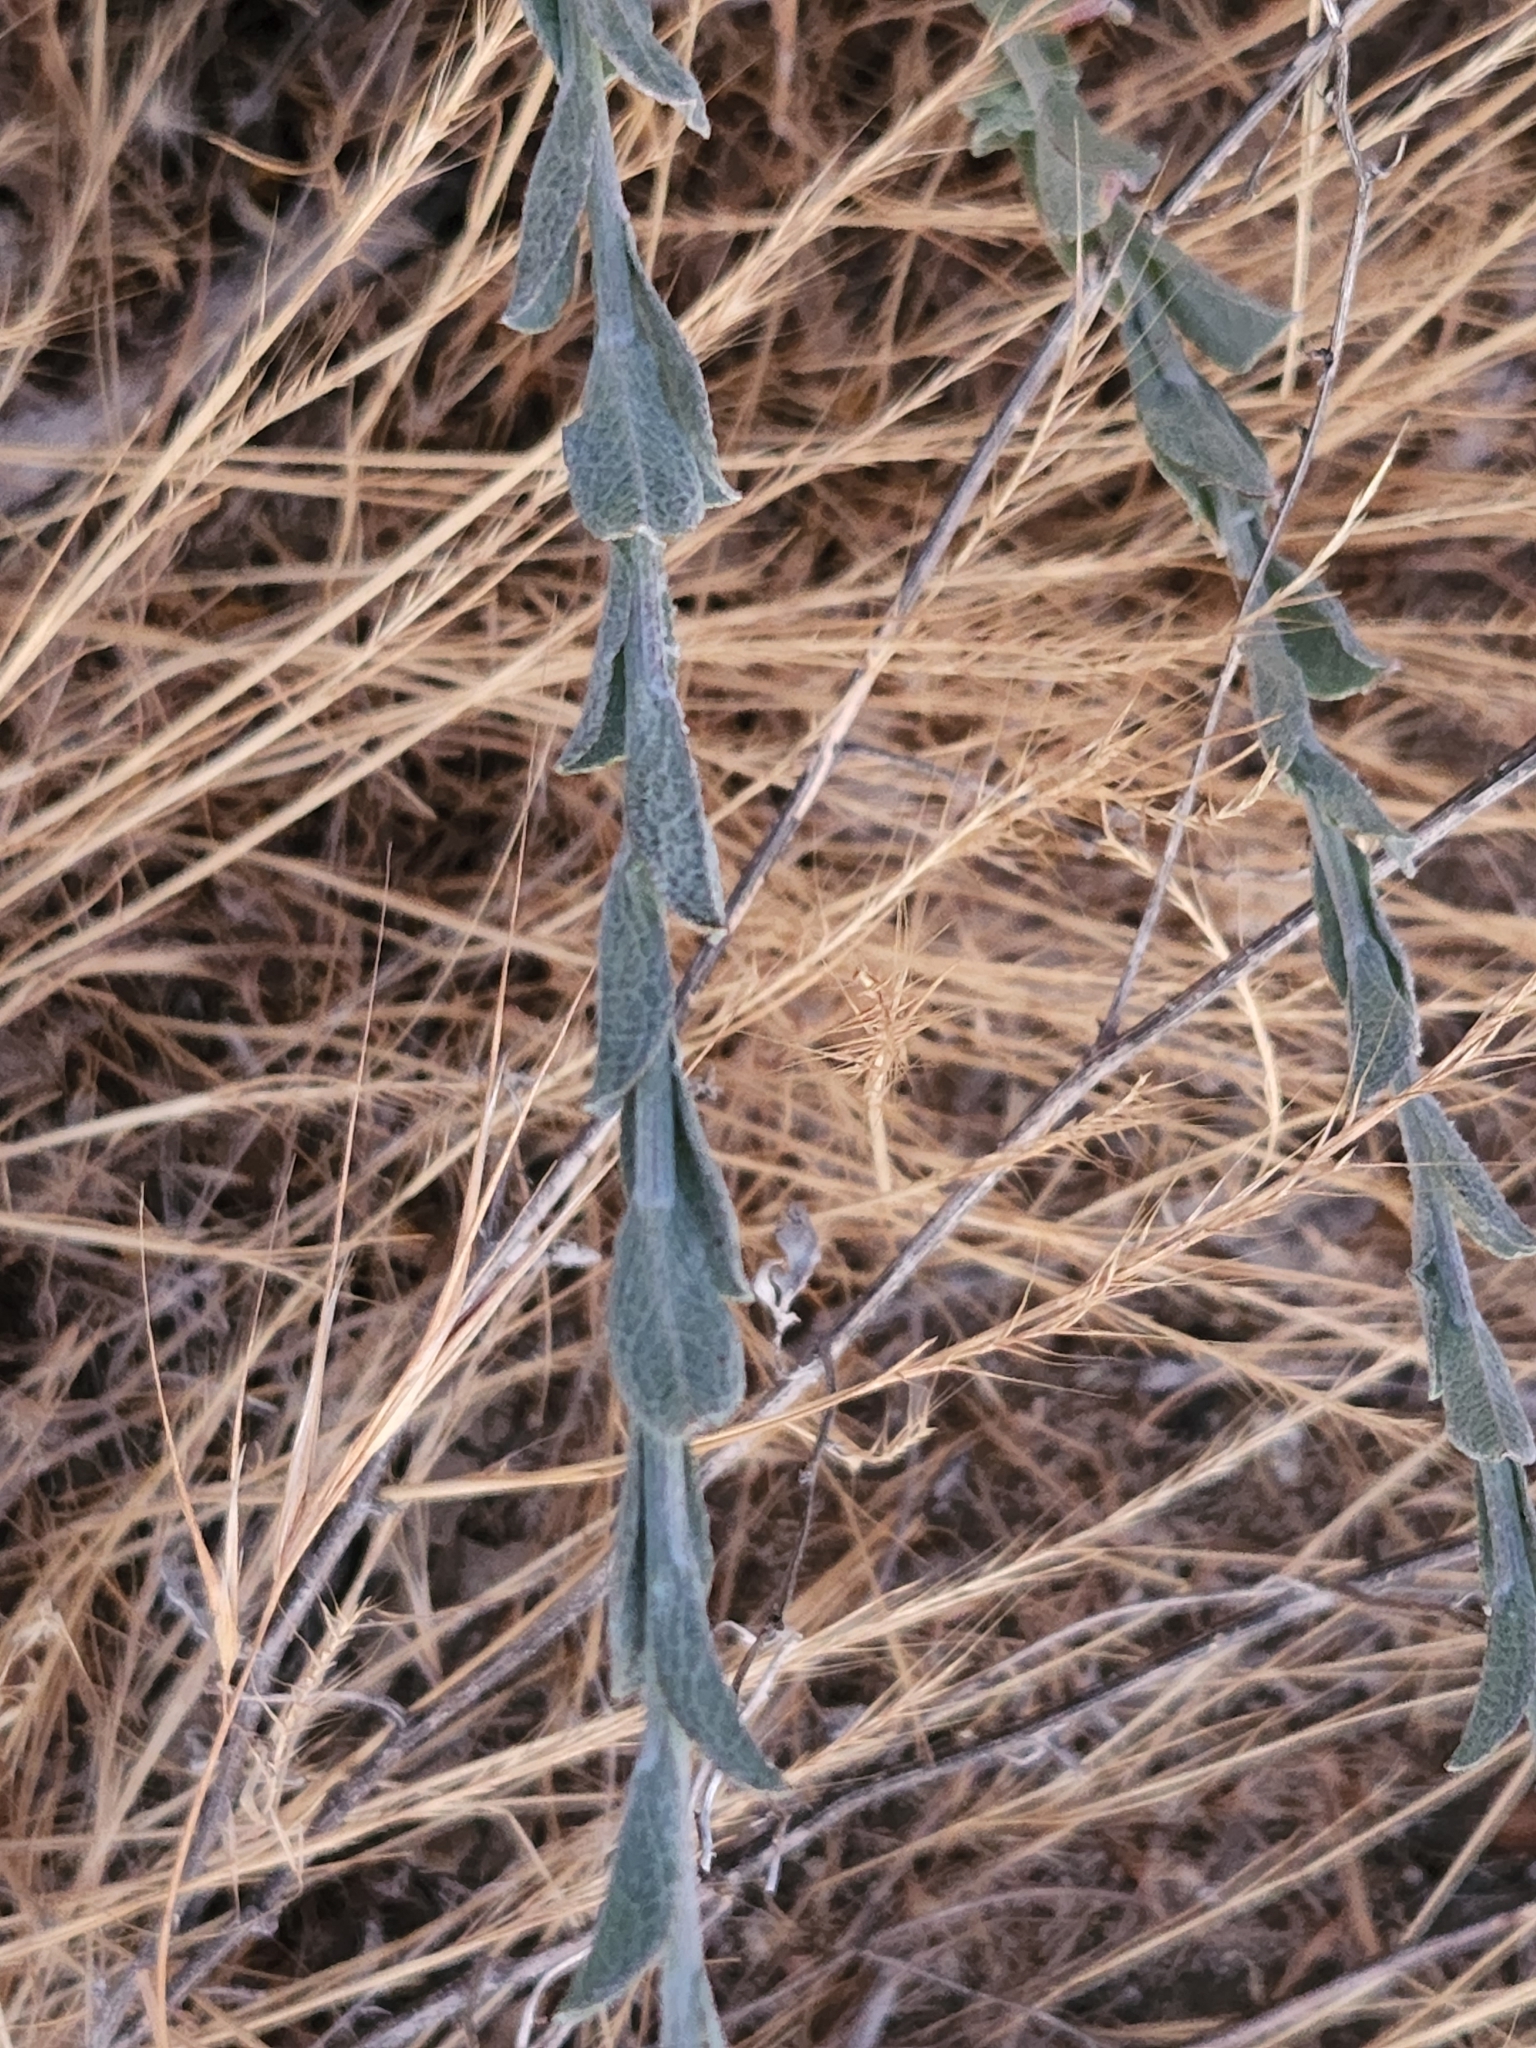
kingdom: Plantae
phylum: Tracheophyta
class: Magnoliopsida
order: Asterales
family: Asteraceae
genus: Corethrogyne
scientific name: Corethrogyne filaginifolia
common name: Sand-aster
